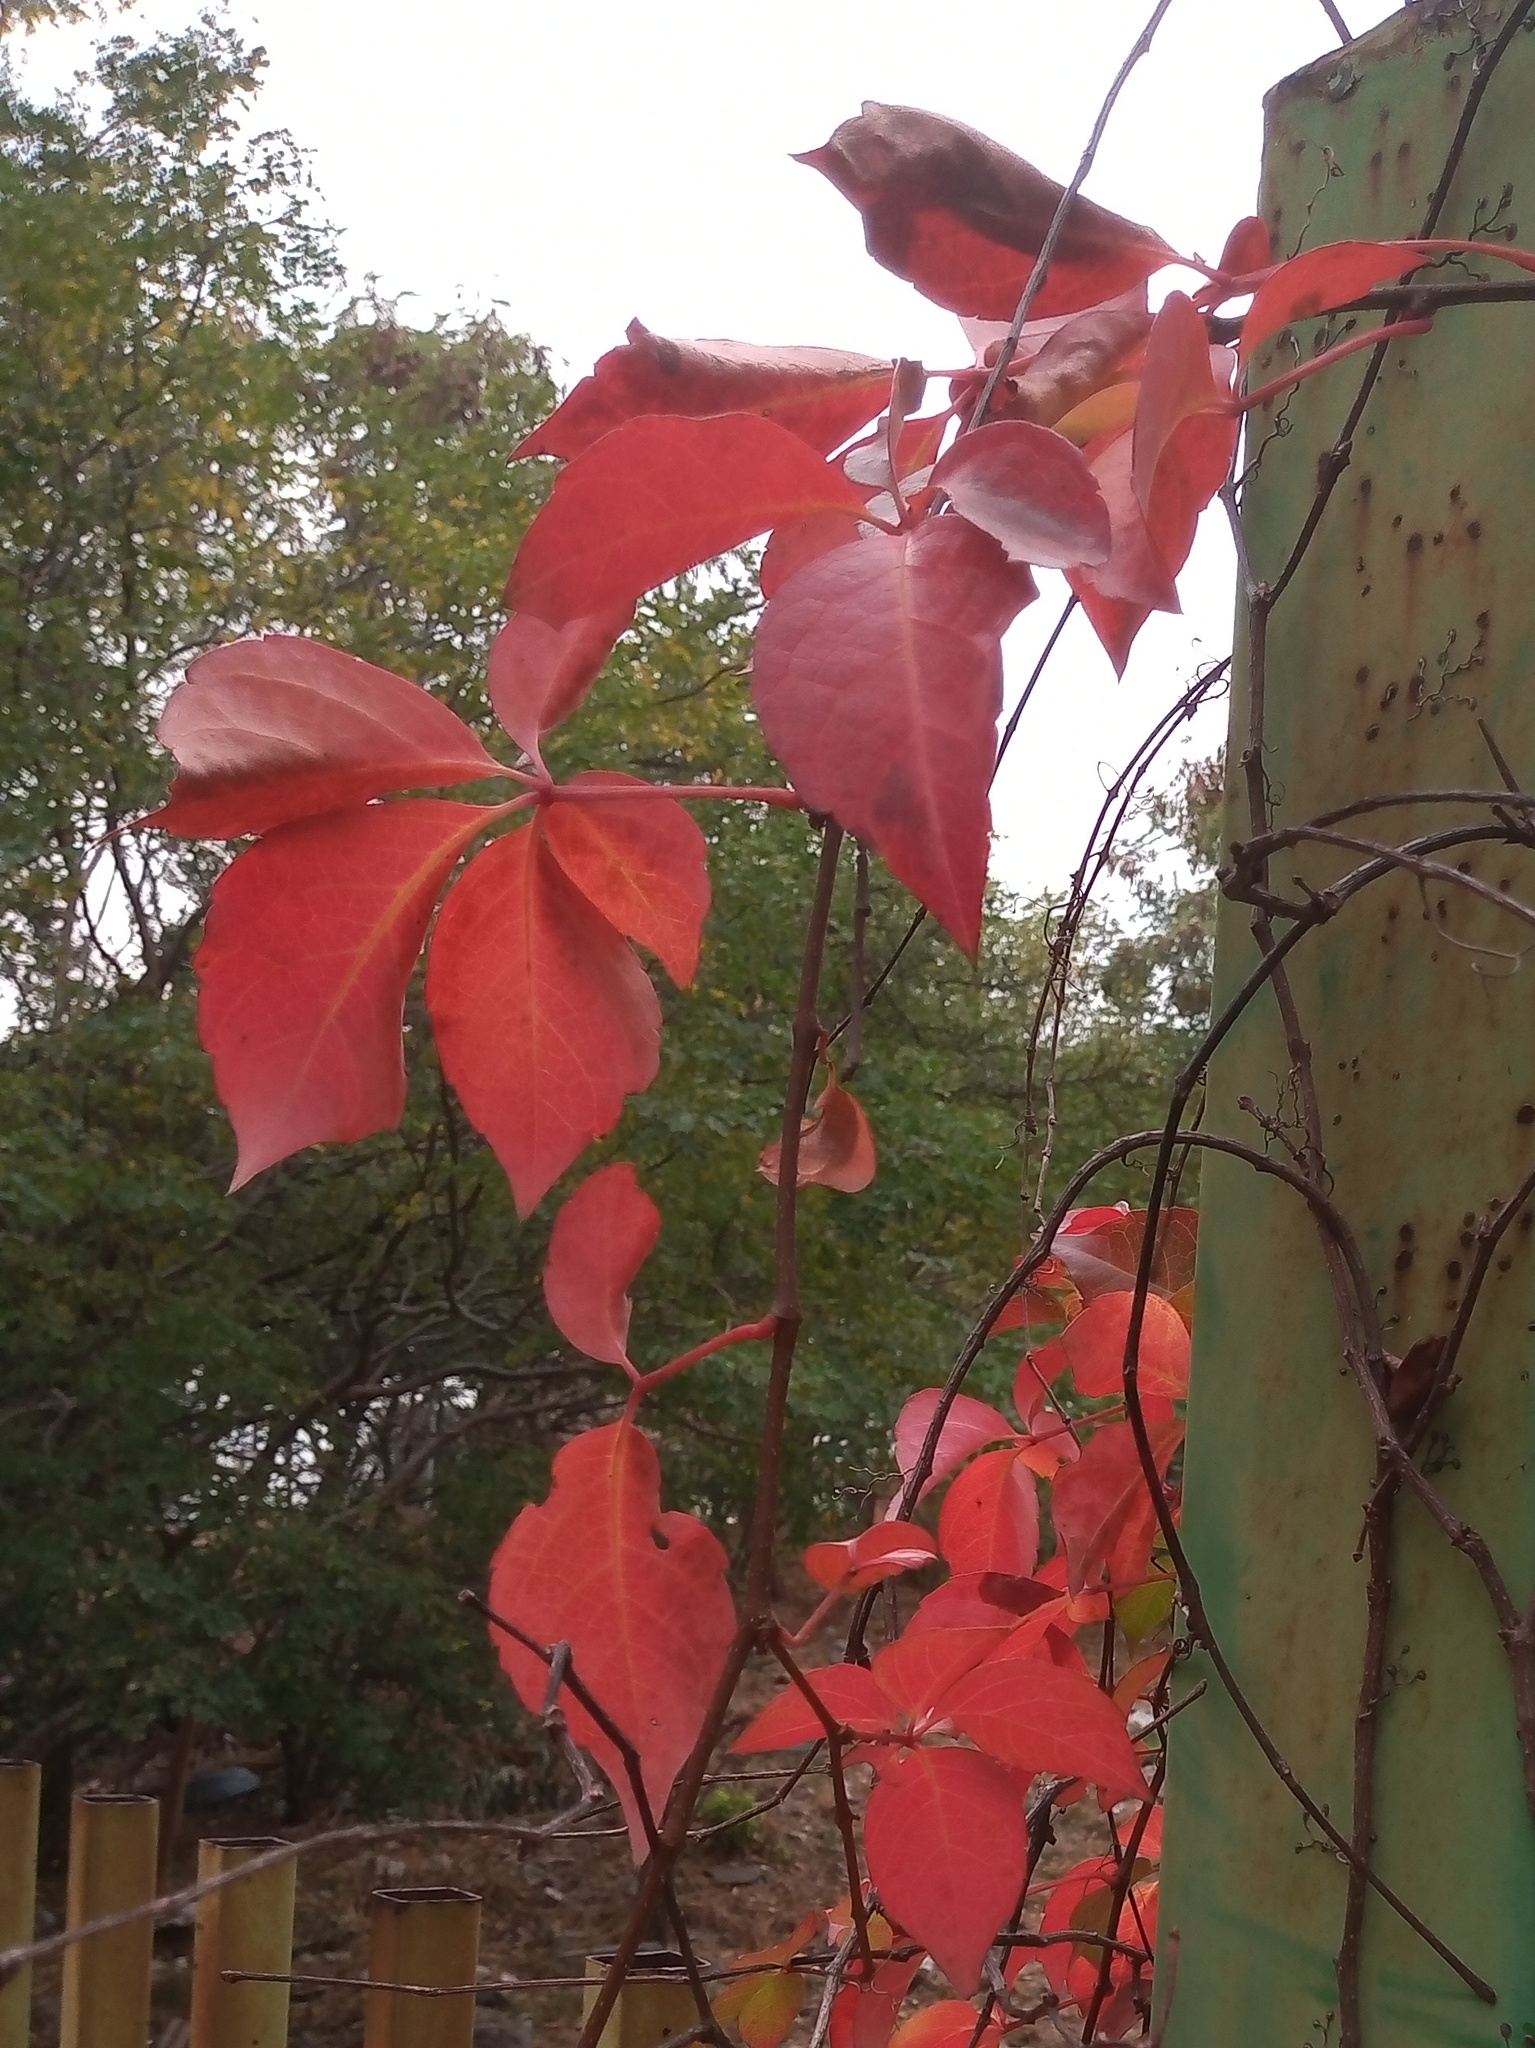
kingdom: Plantae
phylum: Tracheophyta
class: Magnoliopsida
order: Vitales
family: Vitaceae
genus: Parthenocissus
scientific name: Parthenocissus quinquefolia
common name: Virginia-creeper
